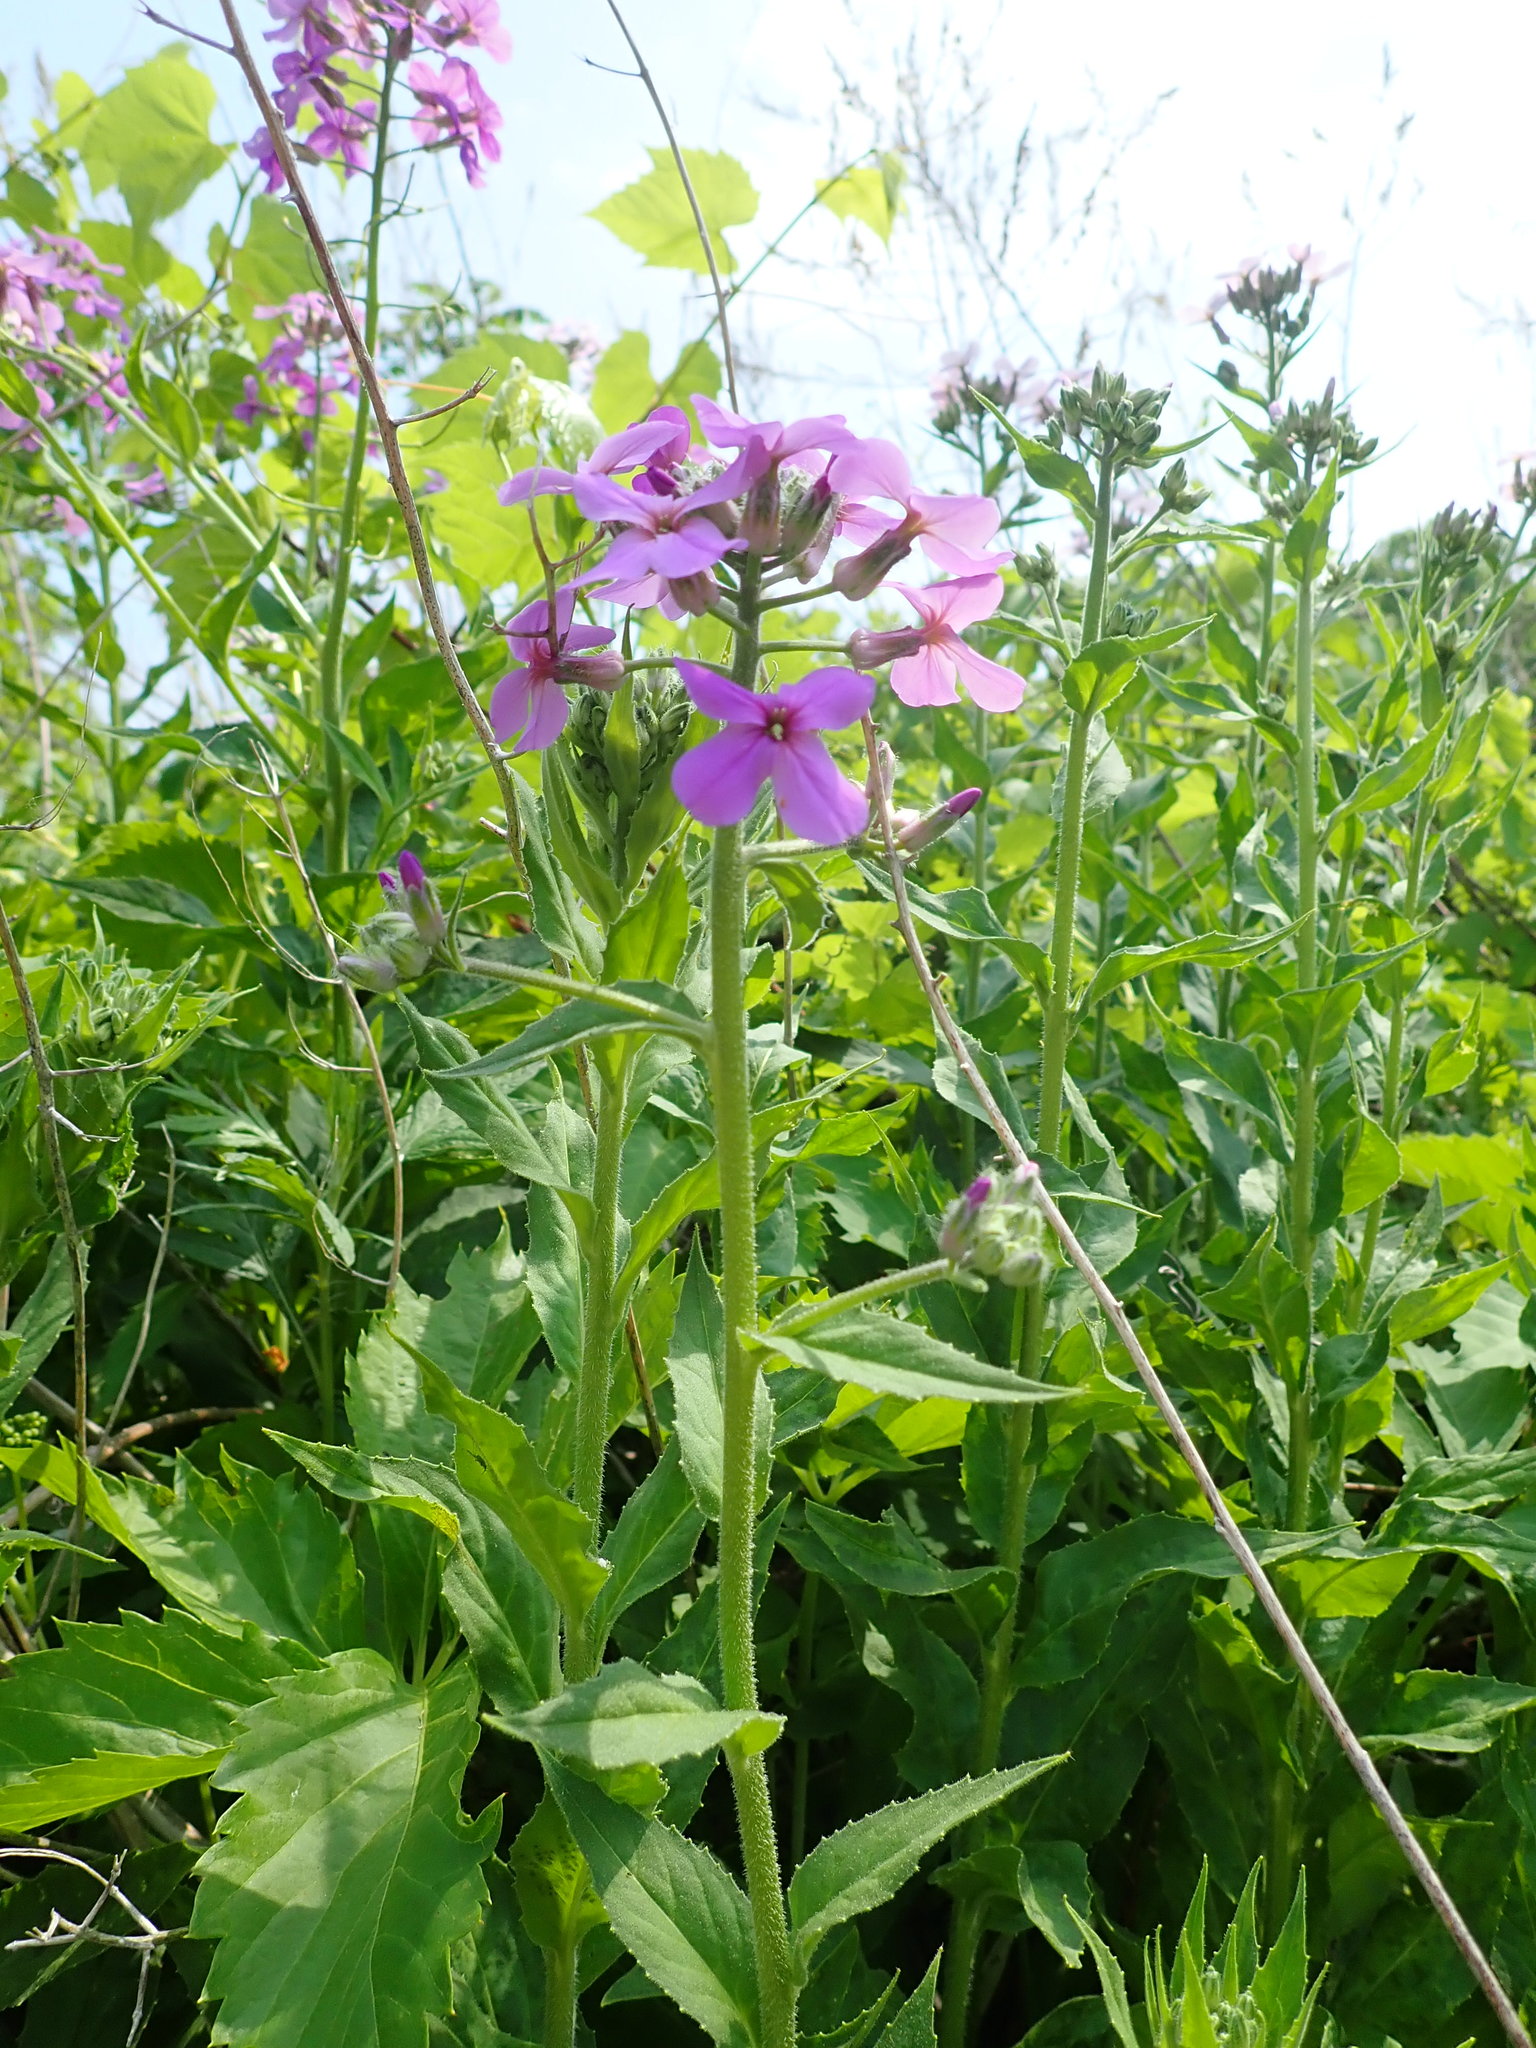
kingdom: Plantae
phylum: Tracheophyta
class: Magnoliopsida
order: Brassicales
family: Brassicaceae
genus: Hesperis
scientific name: Hesperis matronalis
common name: Dame's-violet
